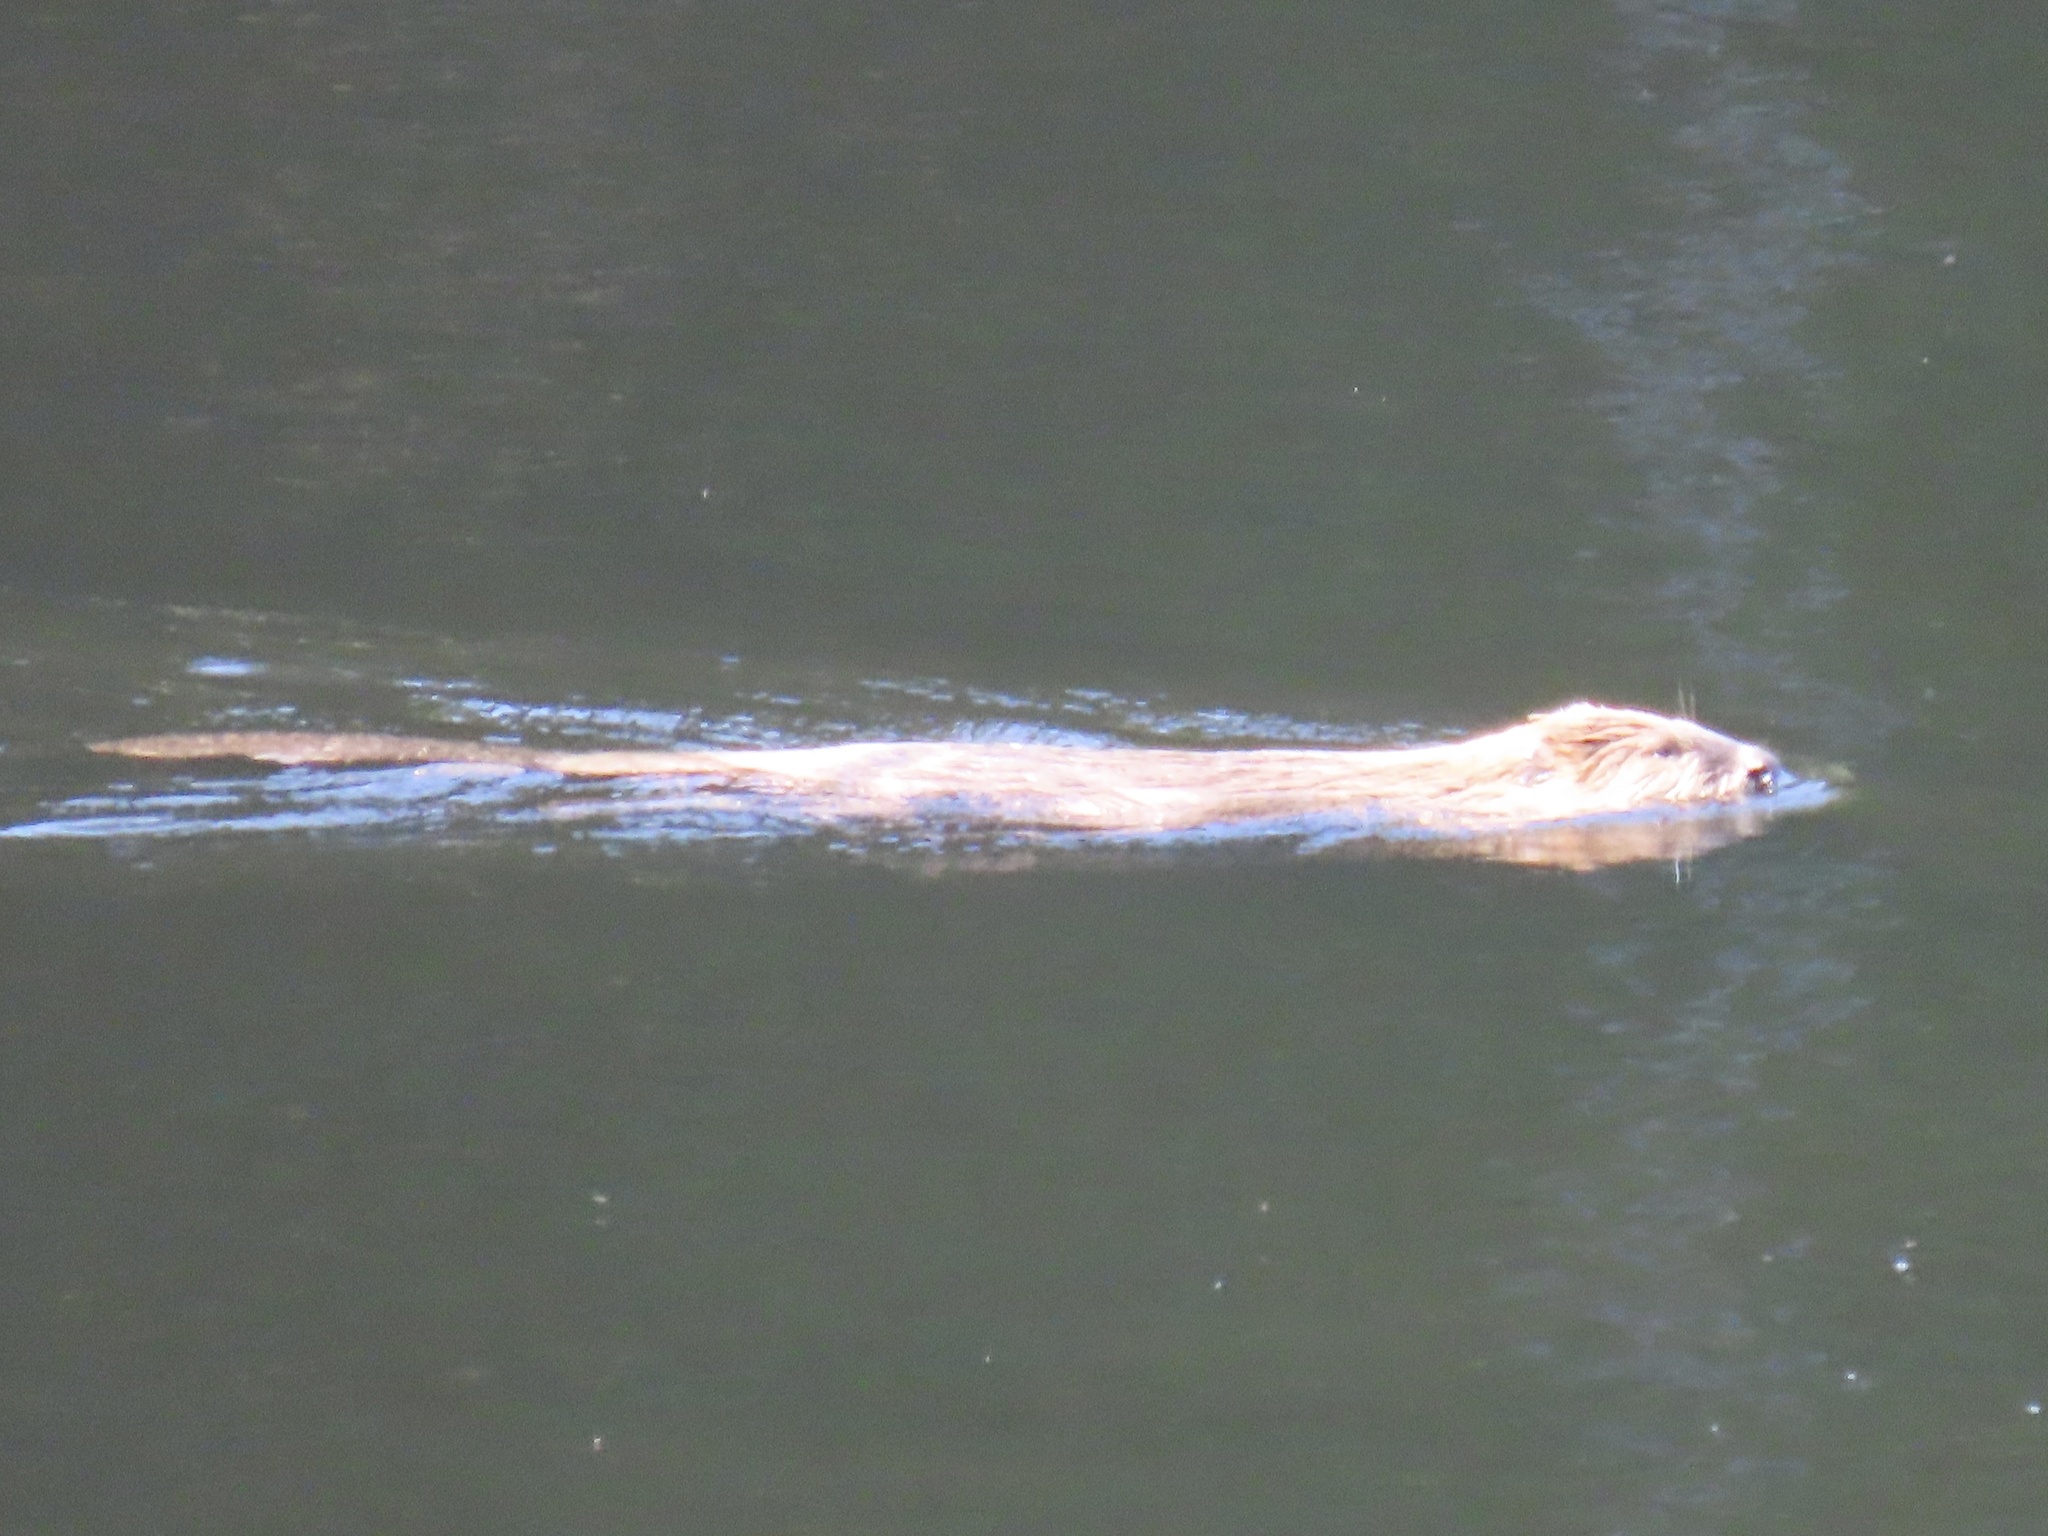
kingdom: Animalia
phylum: Chordata
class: Mammalia
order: Rodentia
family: Castoridae
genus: Castor
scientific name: Castor canadensis
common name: American beaver
